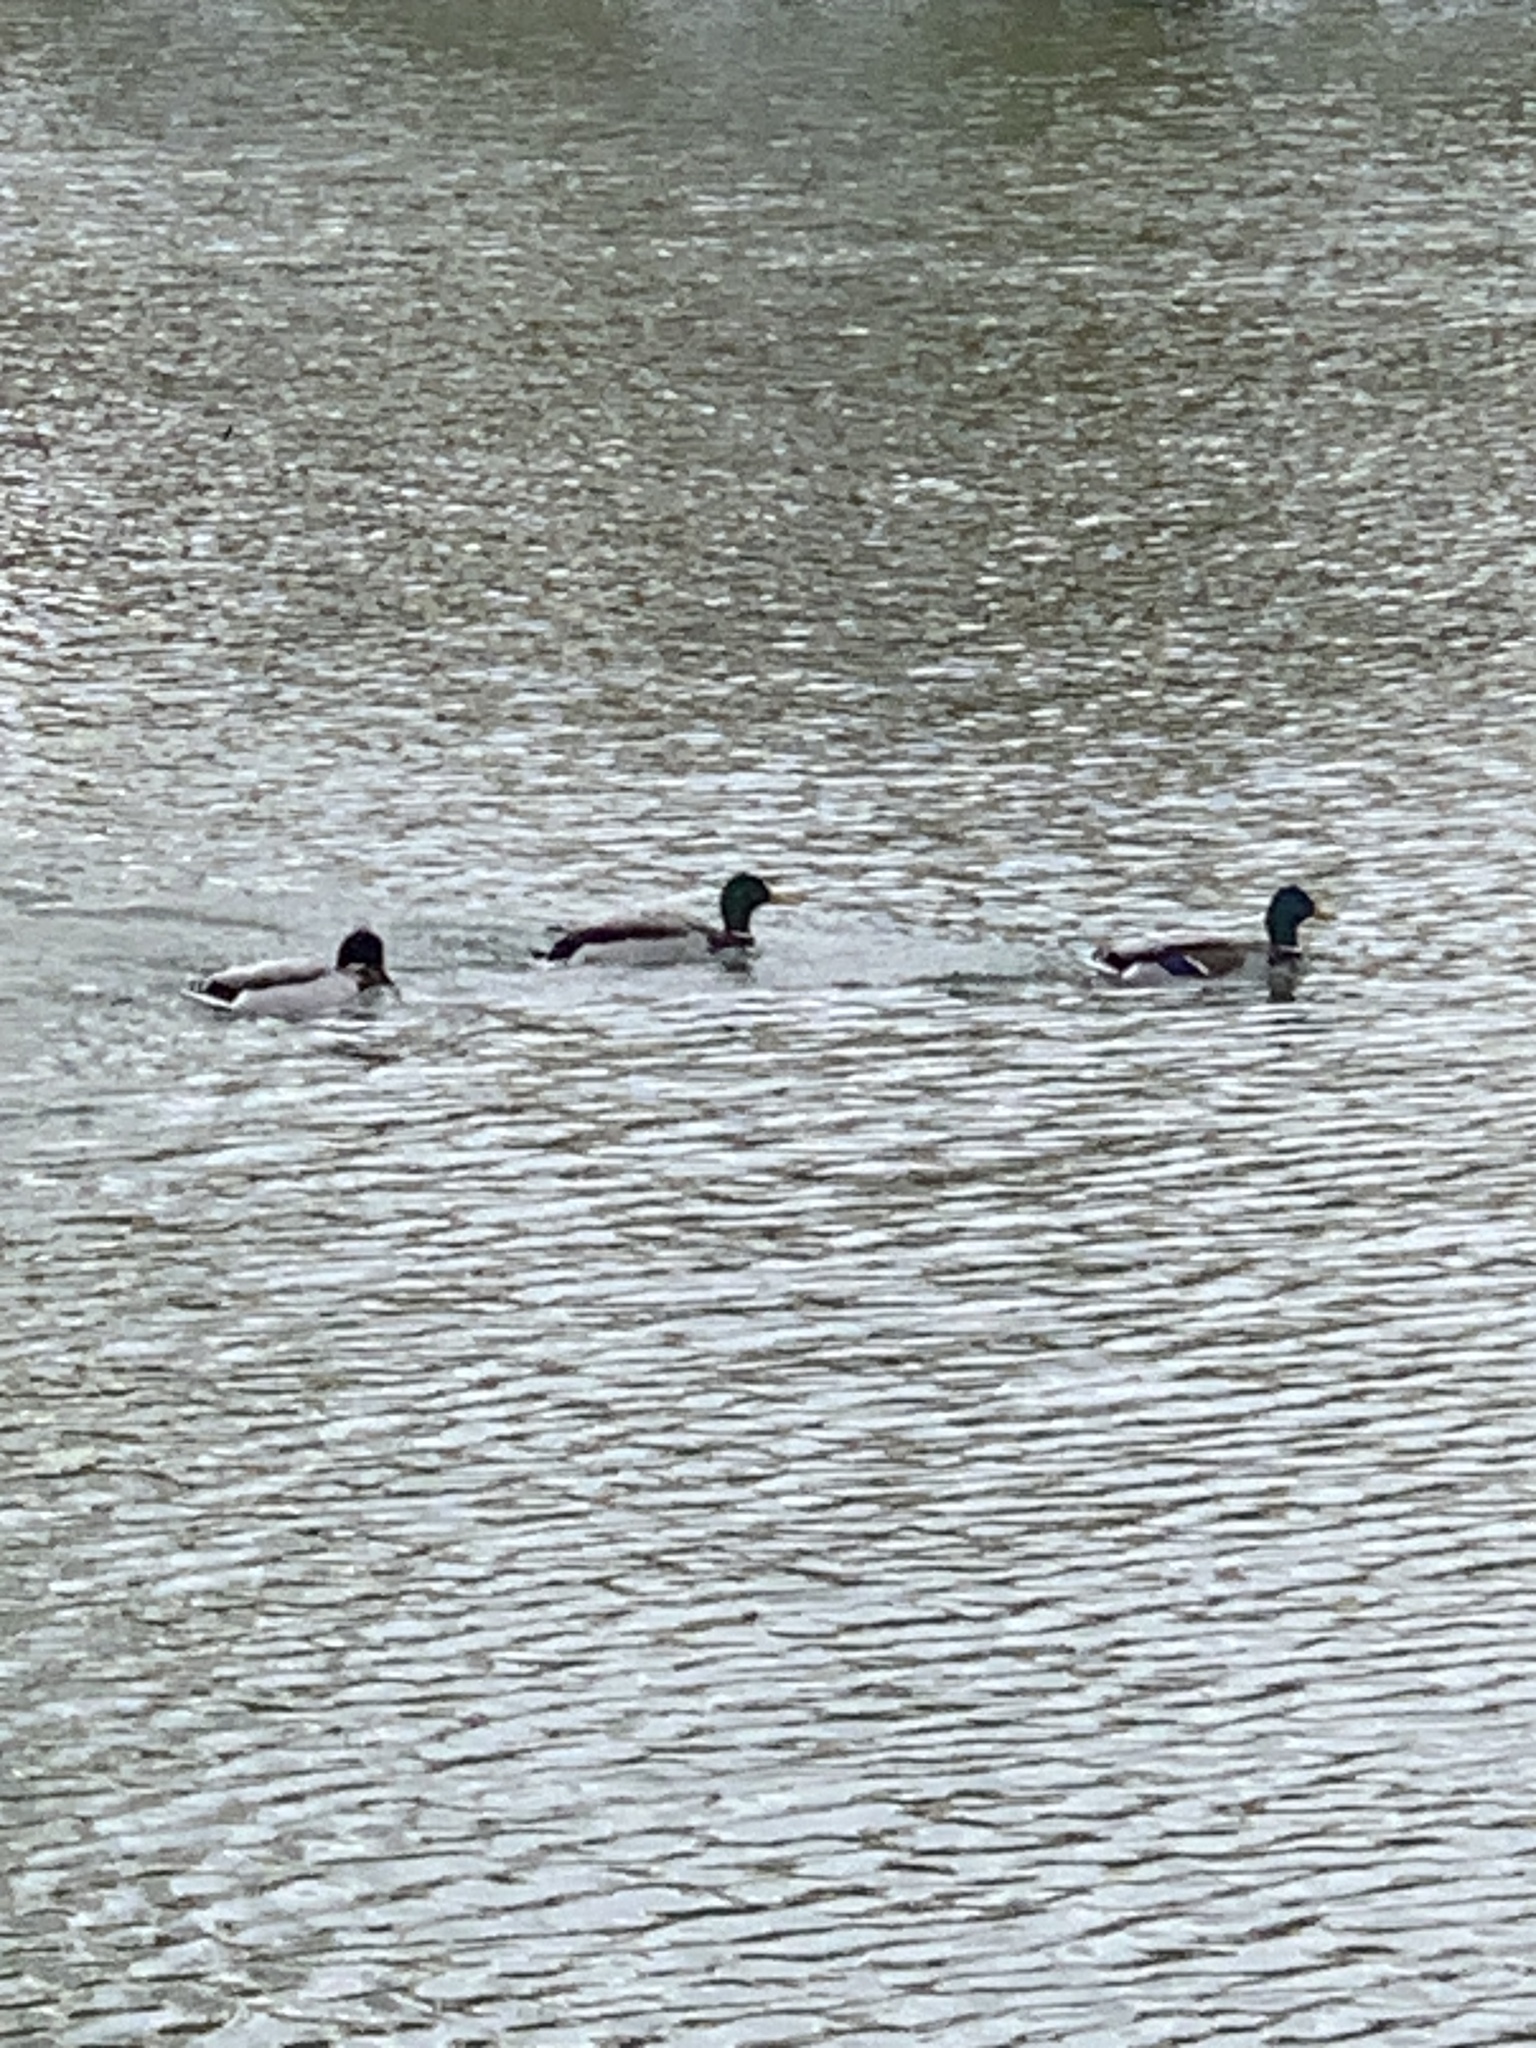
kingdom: Animalia
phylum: Chordata
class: Aves
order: Anseriformes
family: Anatidae
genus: Anas
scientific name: Anas platyrhynchos
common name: Mallard
